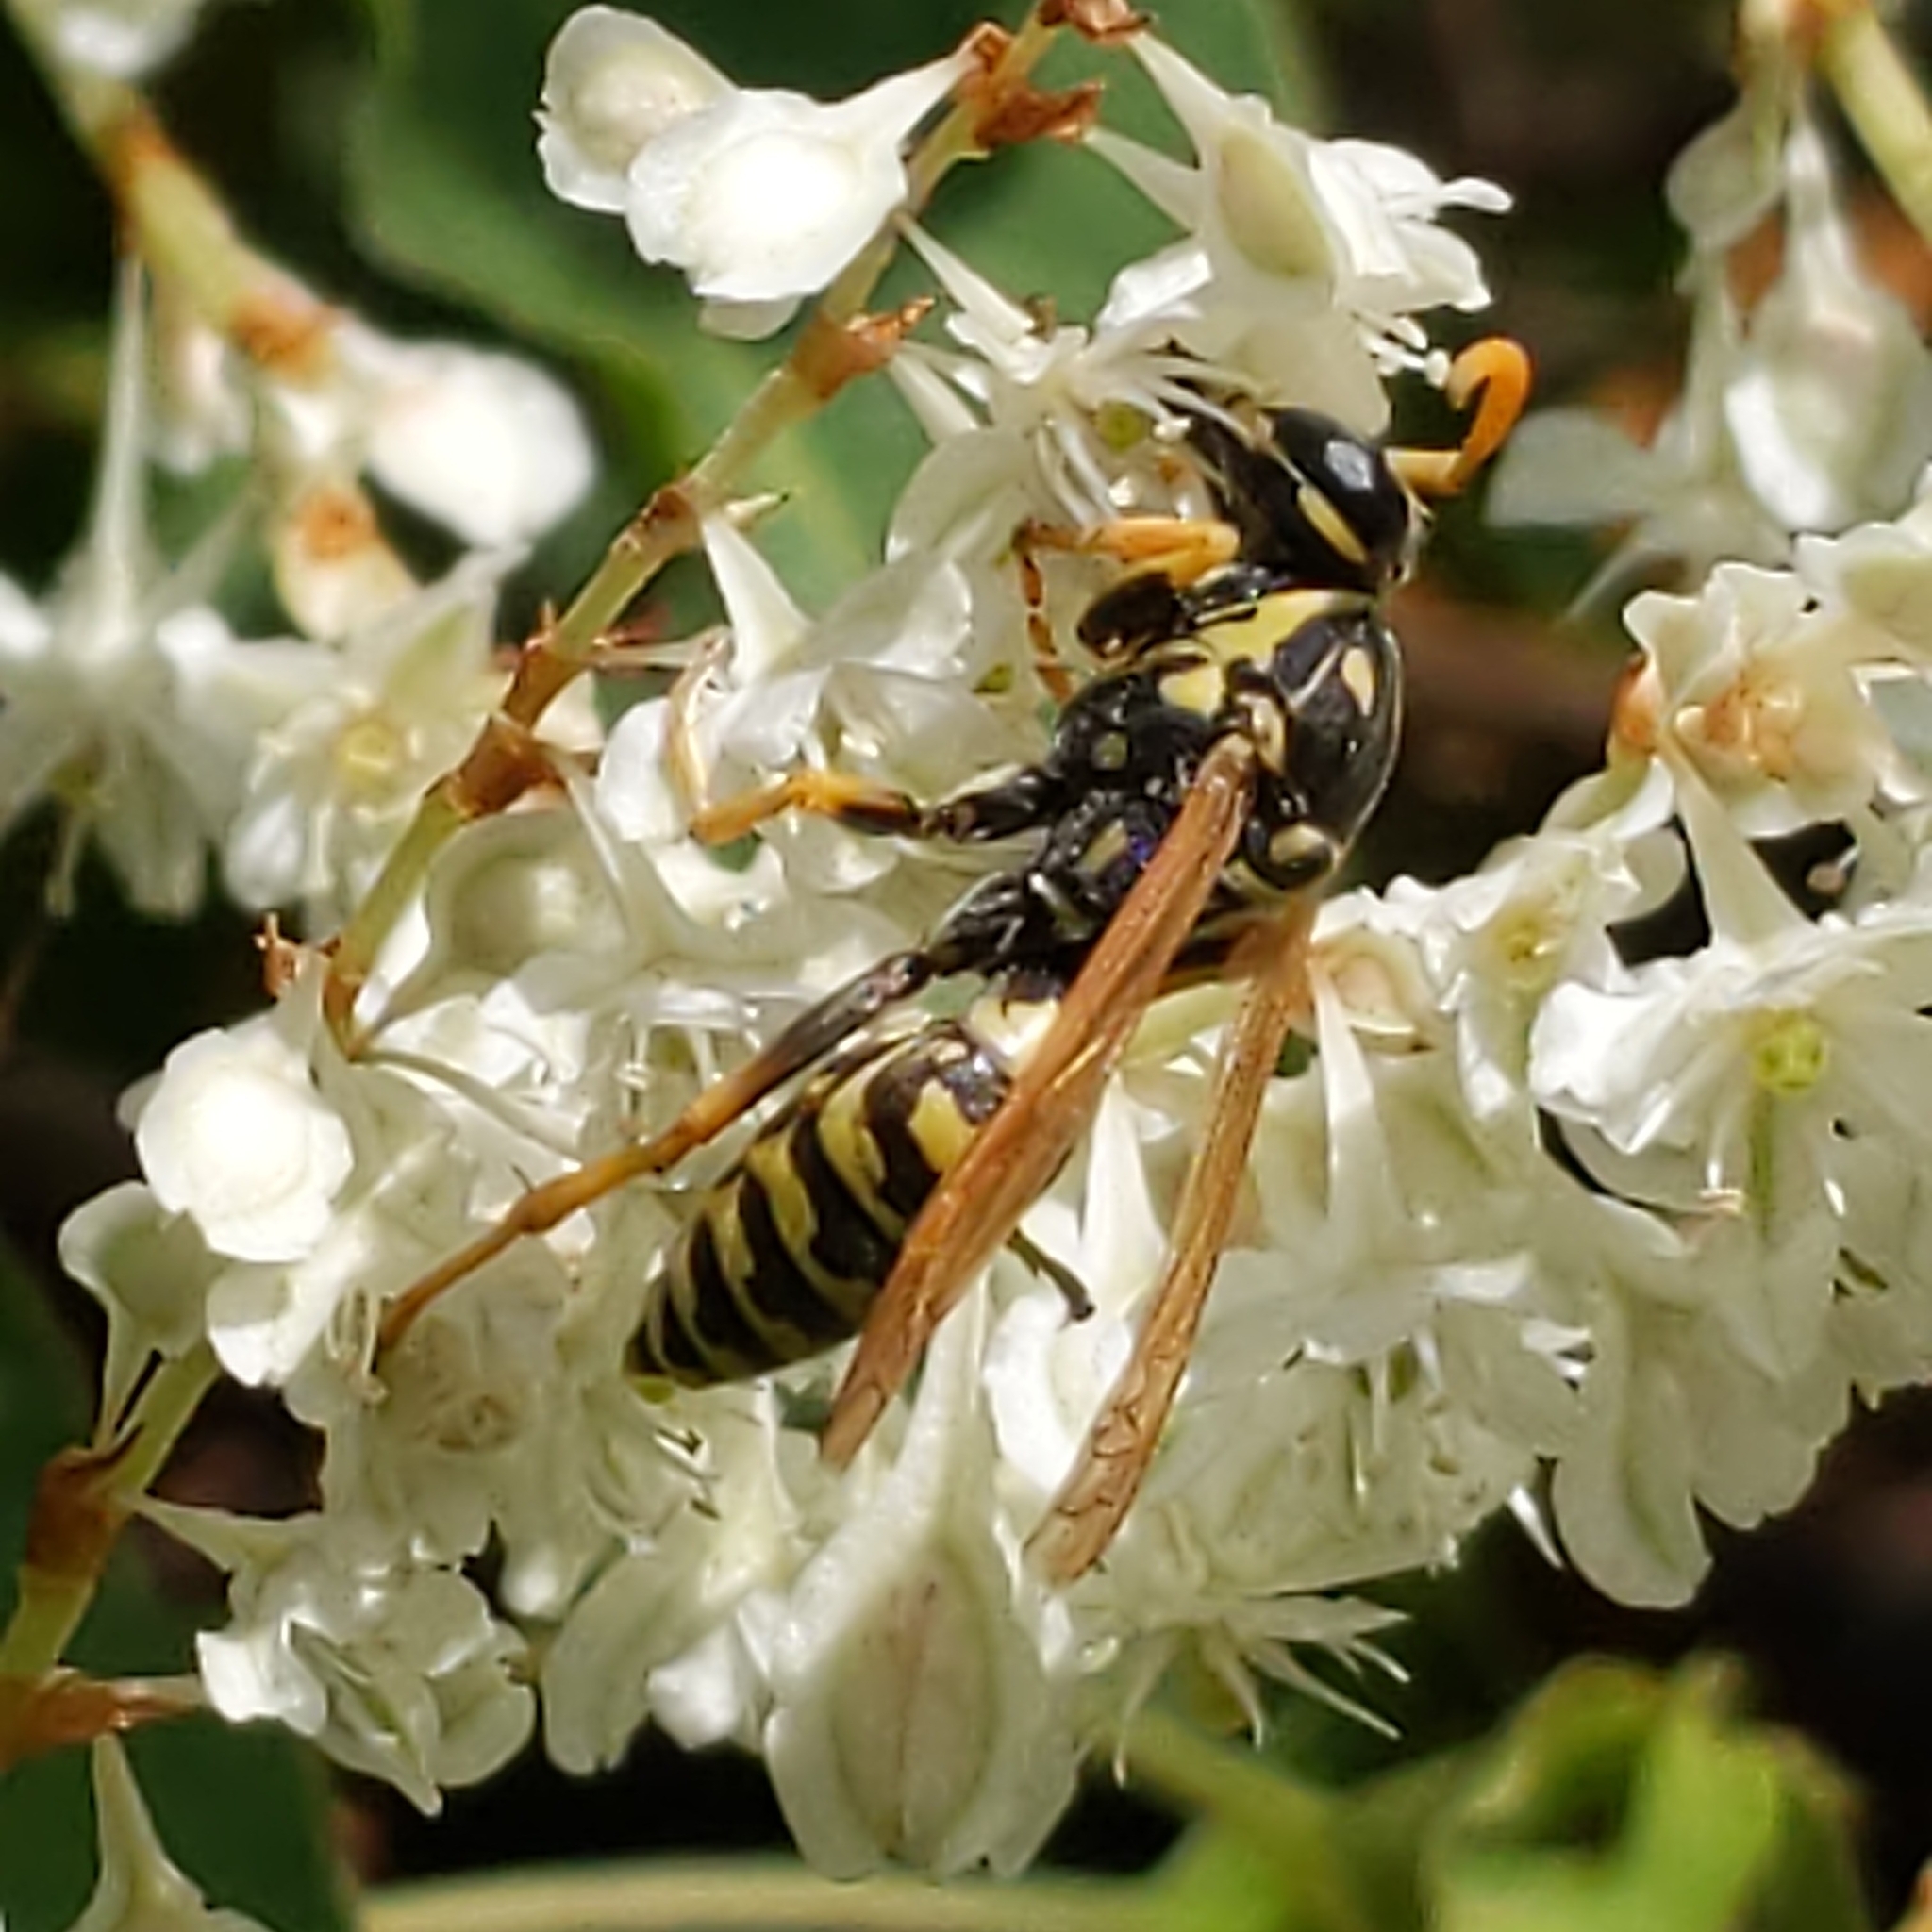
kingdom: Animalia
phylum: Arthropoda
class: Insecta
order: Hymenoptera
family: Eumenidae
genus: Polistes
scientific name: Polistes dominula
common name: Paper wasp
